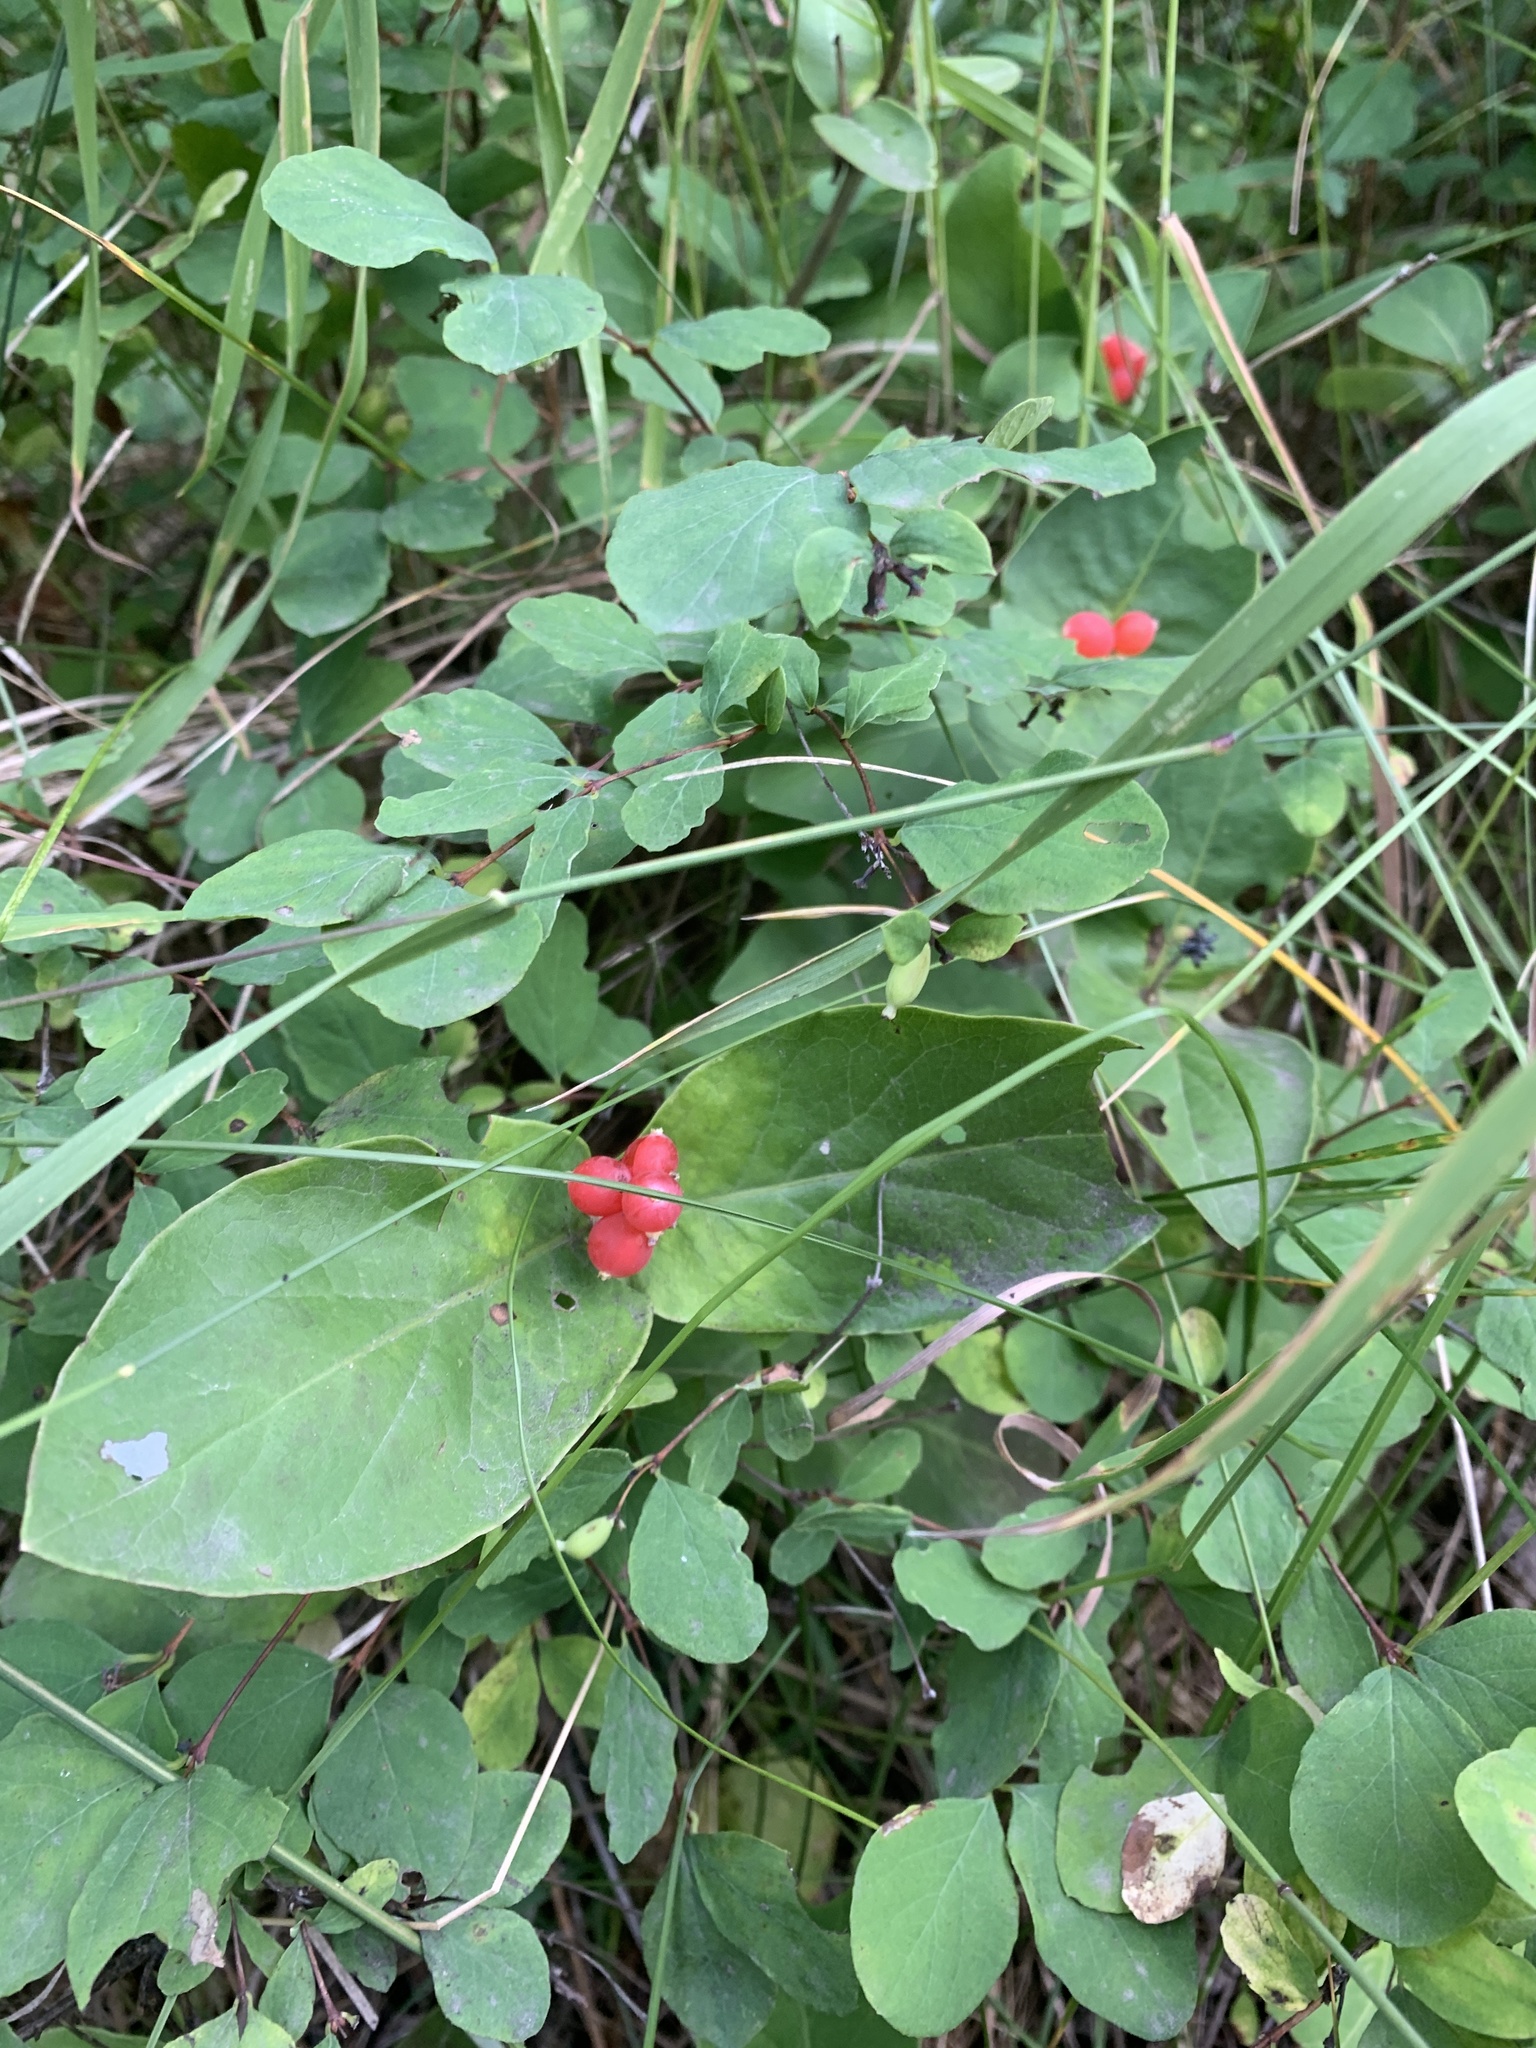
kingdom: Plantae
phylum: Tracheophyta
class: Magnoliopsida
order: Dipsacales
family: Caprifoliaceae
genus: Lonicera
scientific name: Lonicera dioica
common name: Limber honeysuckle
